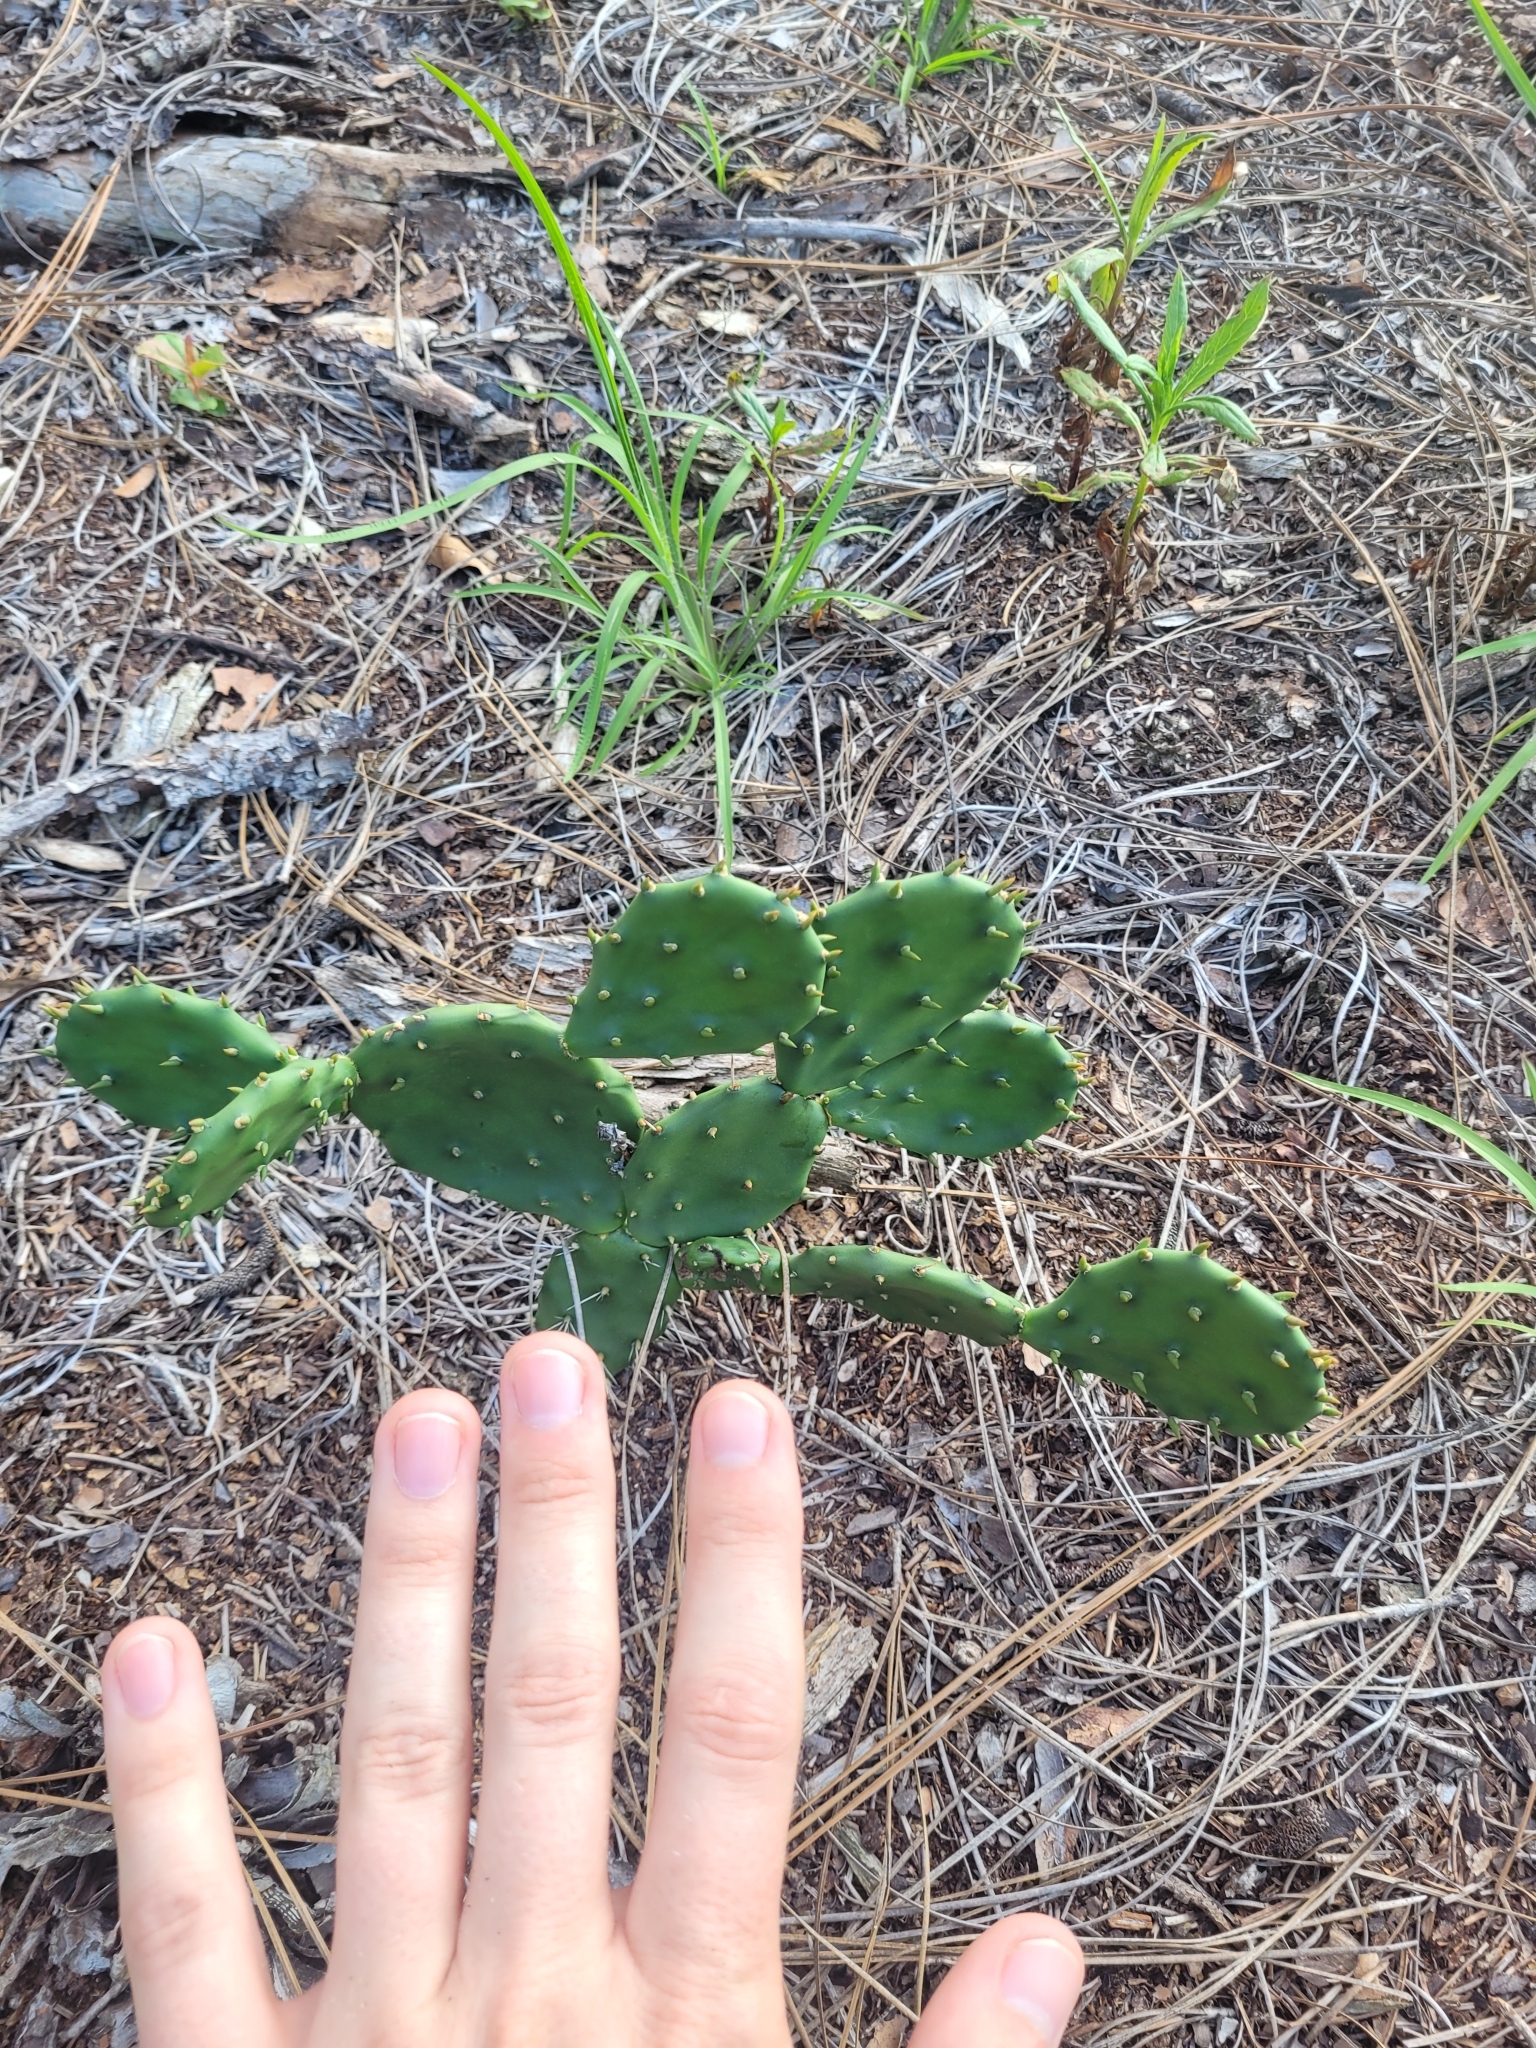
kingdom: Plantae
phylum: Tracheophyta
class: Magnoliopsida
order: Caryophyllales
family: Cactaceae
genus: Opuntia
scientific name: Opuntia humifusa
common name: Eastern prickly-pear
